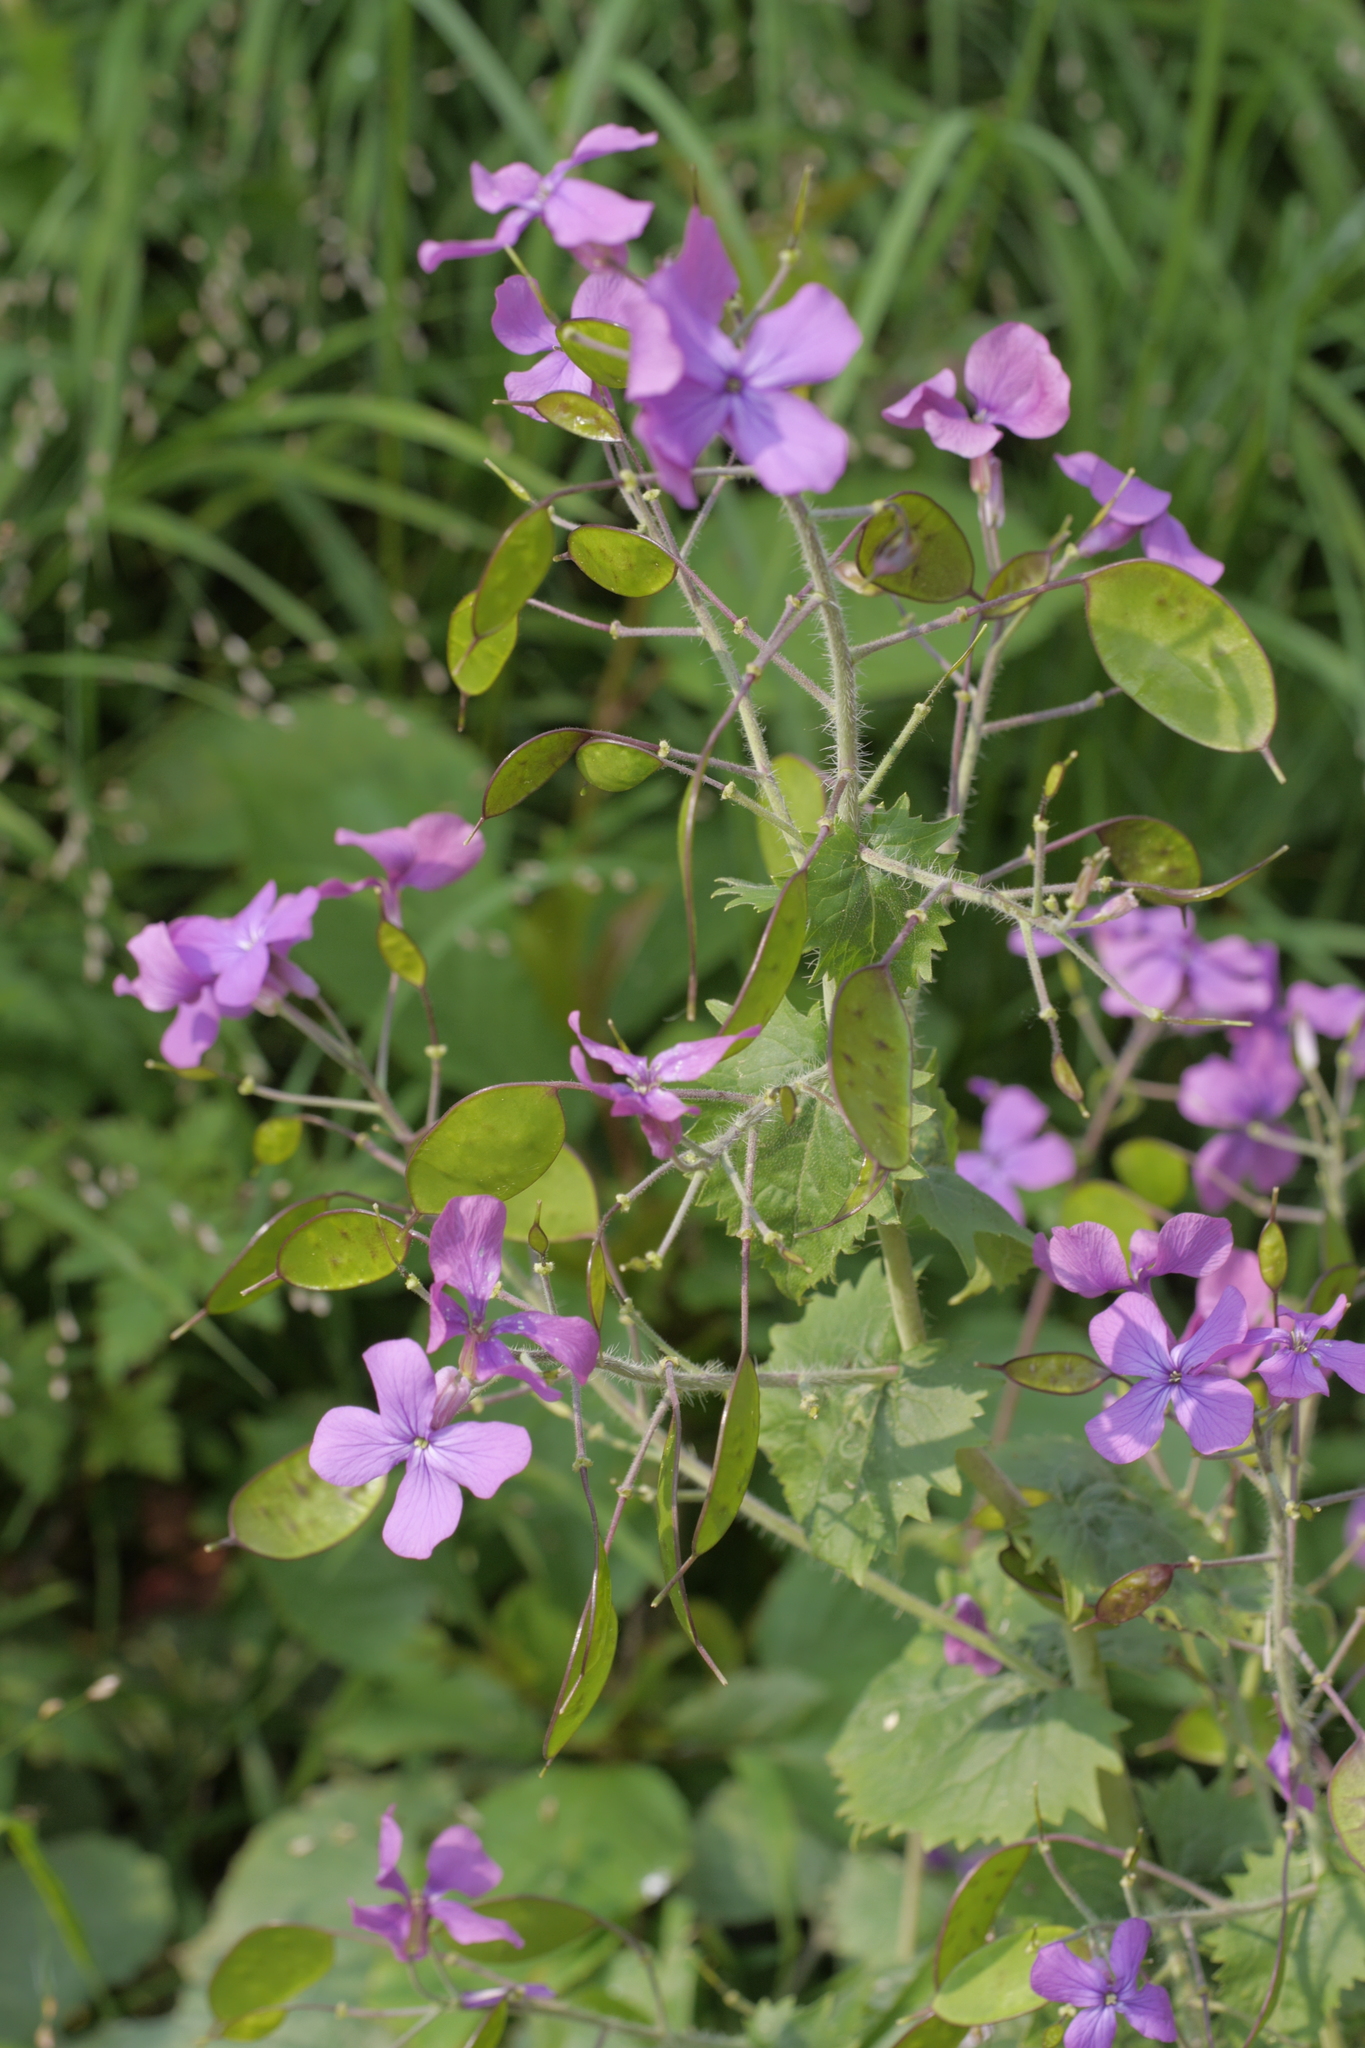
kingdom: Plantae
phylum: Tracheophyta
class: Magnoliopsida
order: Brassicales
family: Brassicaceae
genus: Lunaria
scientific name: Lunaria annua
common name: Honesty
